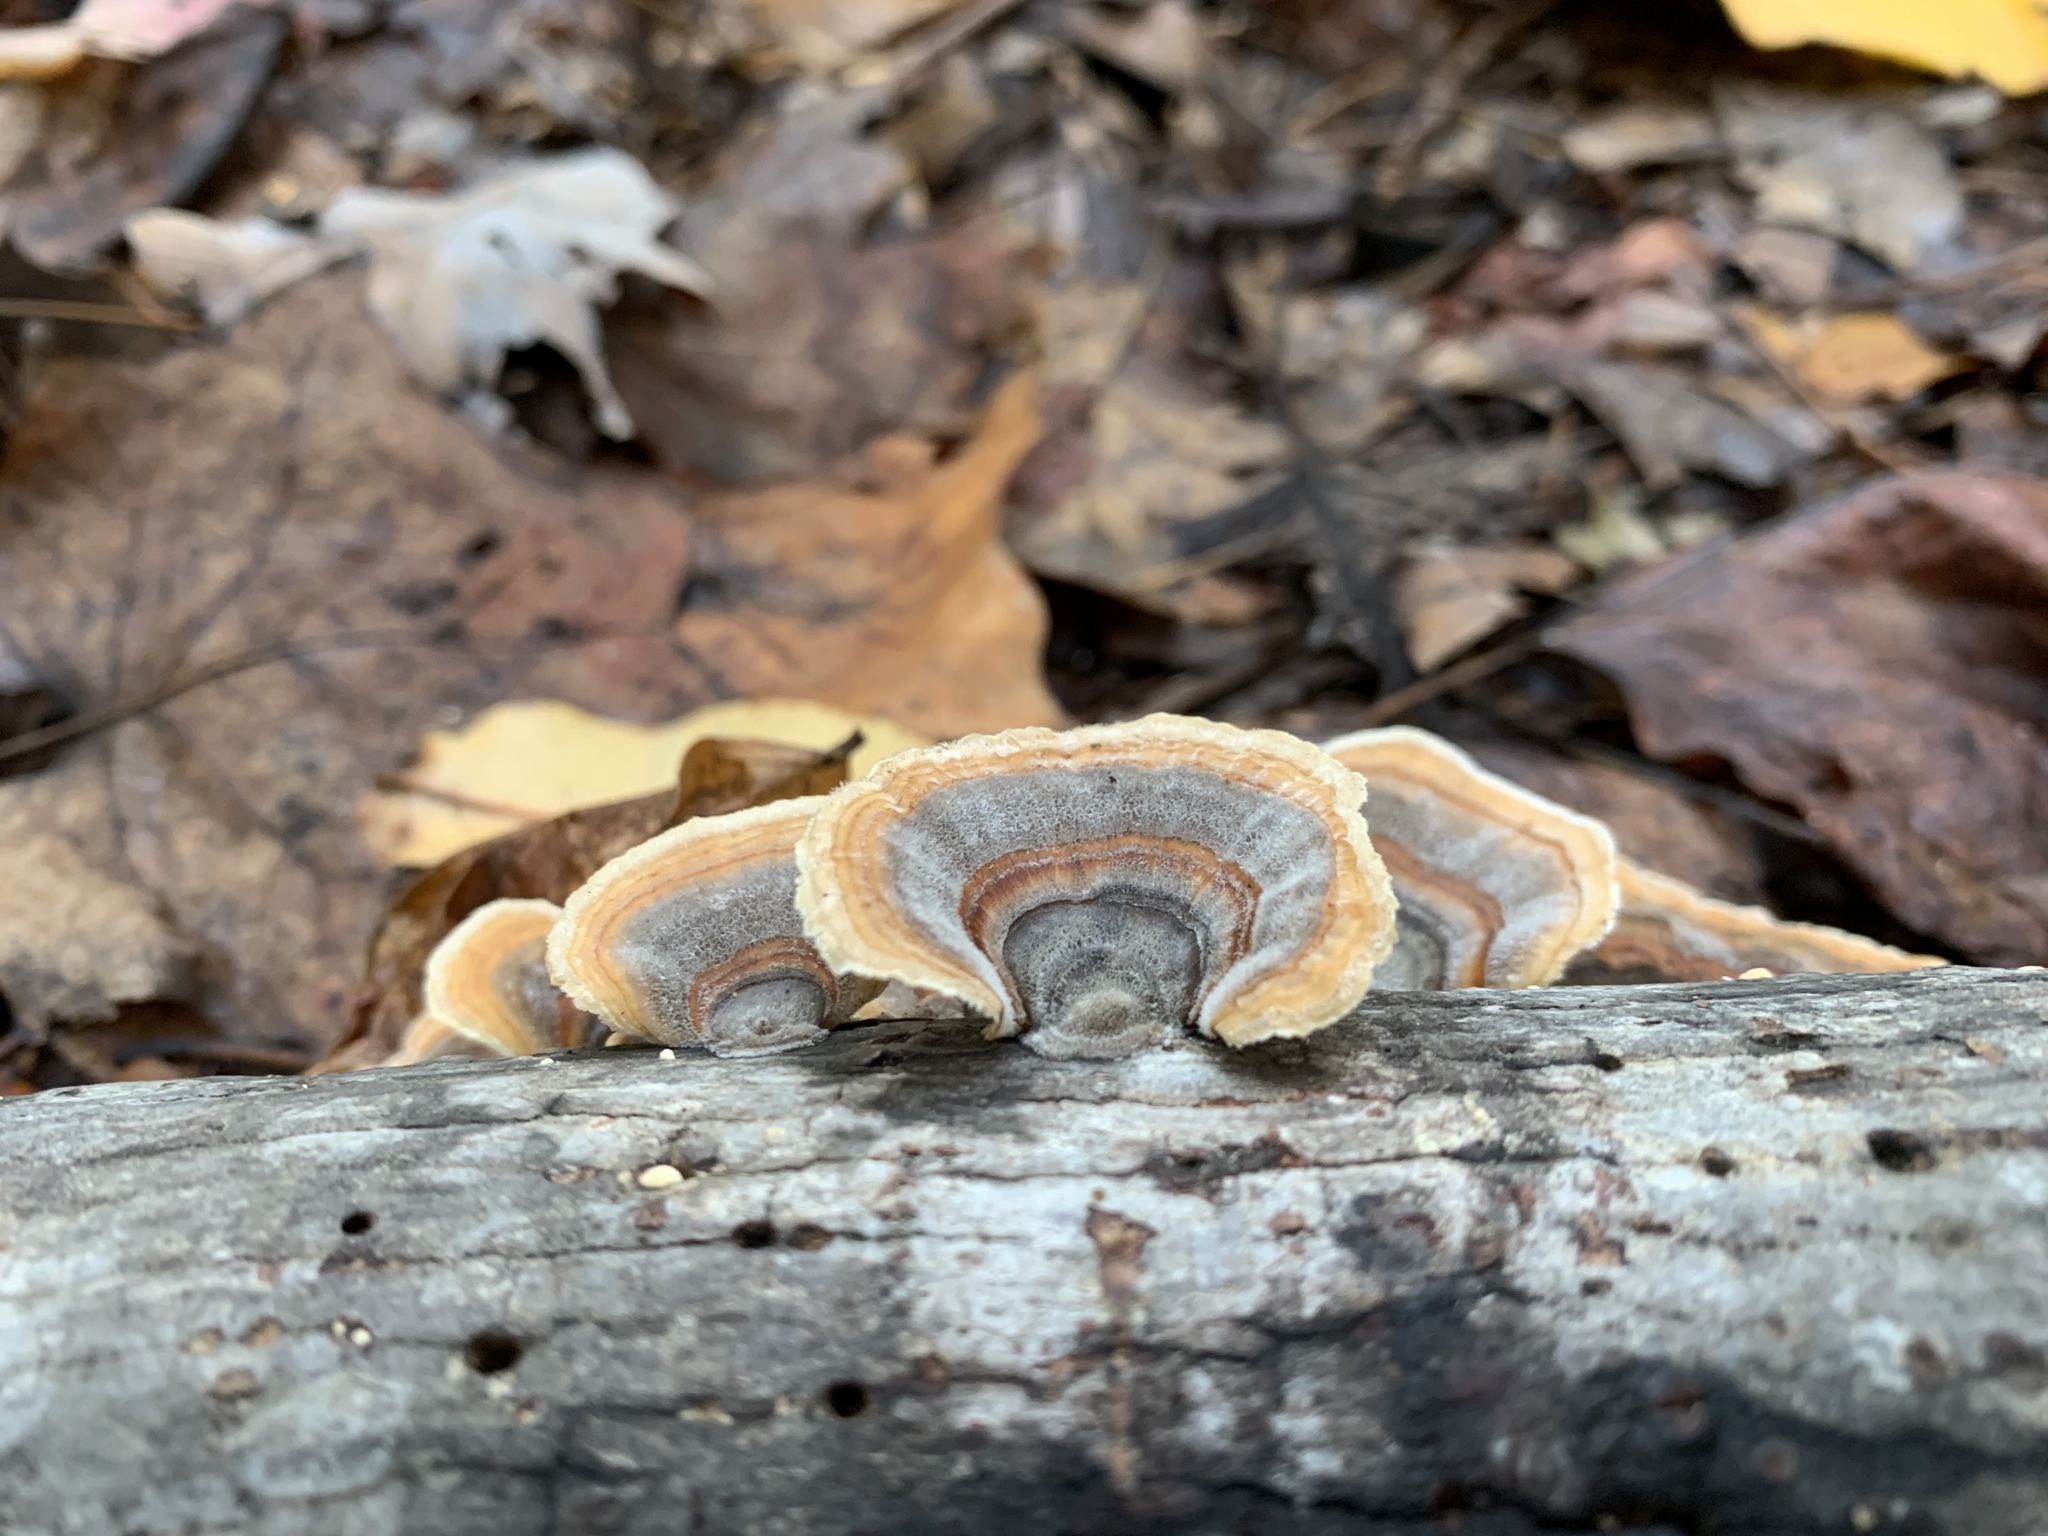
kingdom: Fungi
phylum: Basidiomycota
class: Agaricomycetes
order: Polyporales
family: Polyporaceae
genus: Trametes
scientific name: Trametes versicolor
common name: Turkeytail
